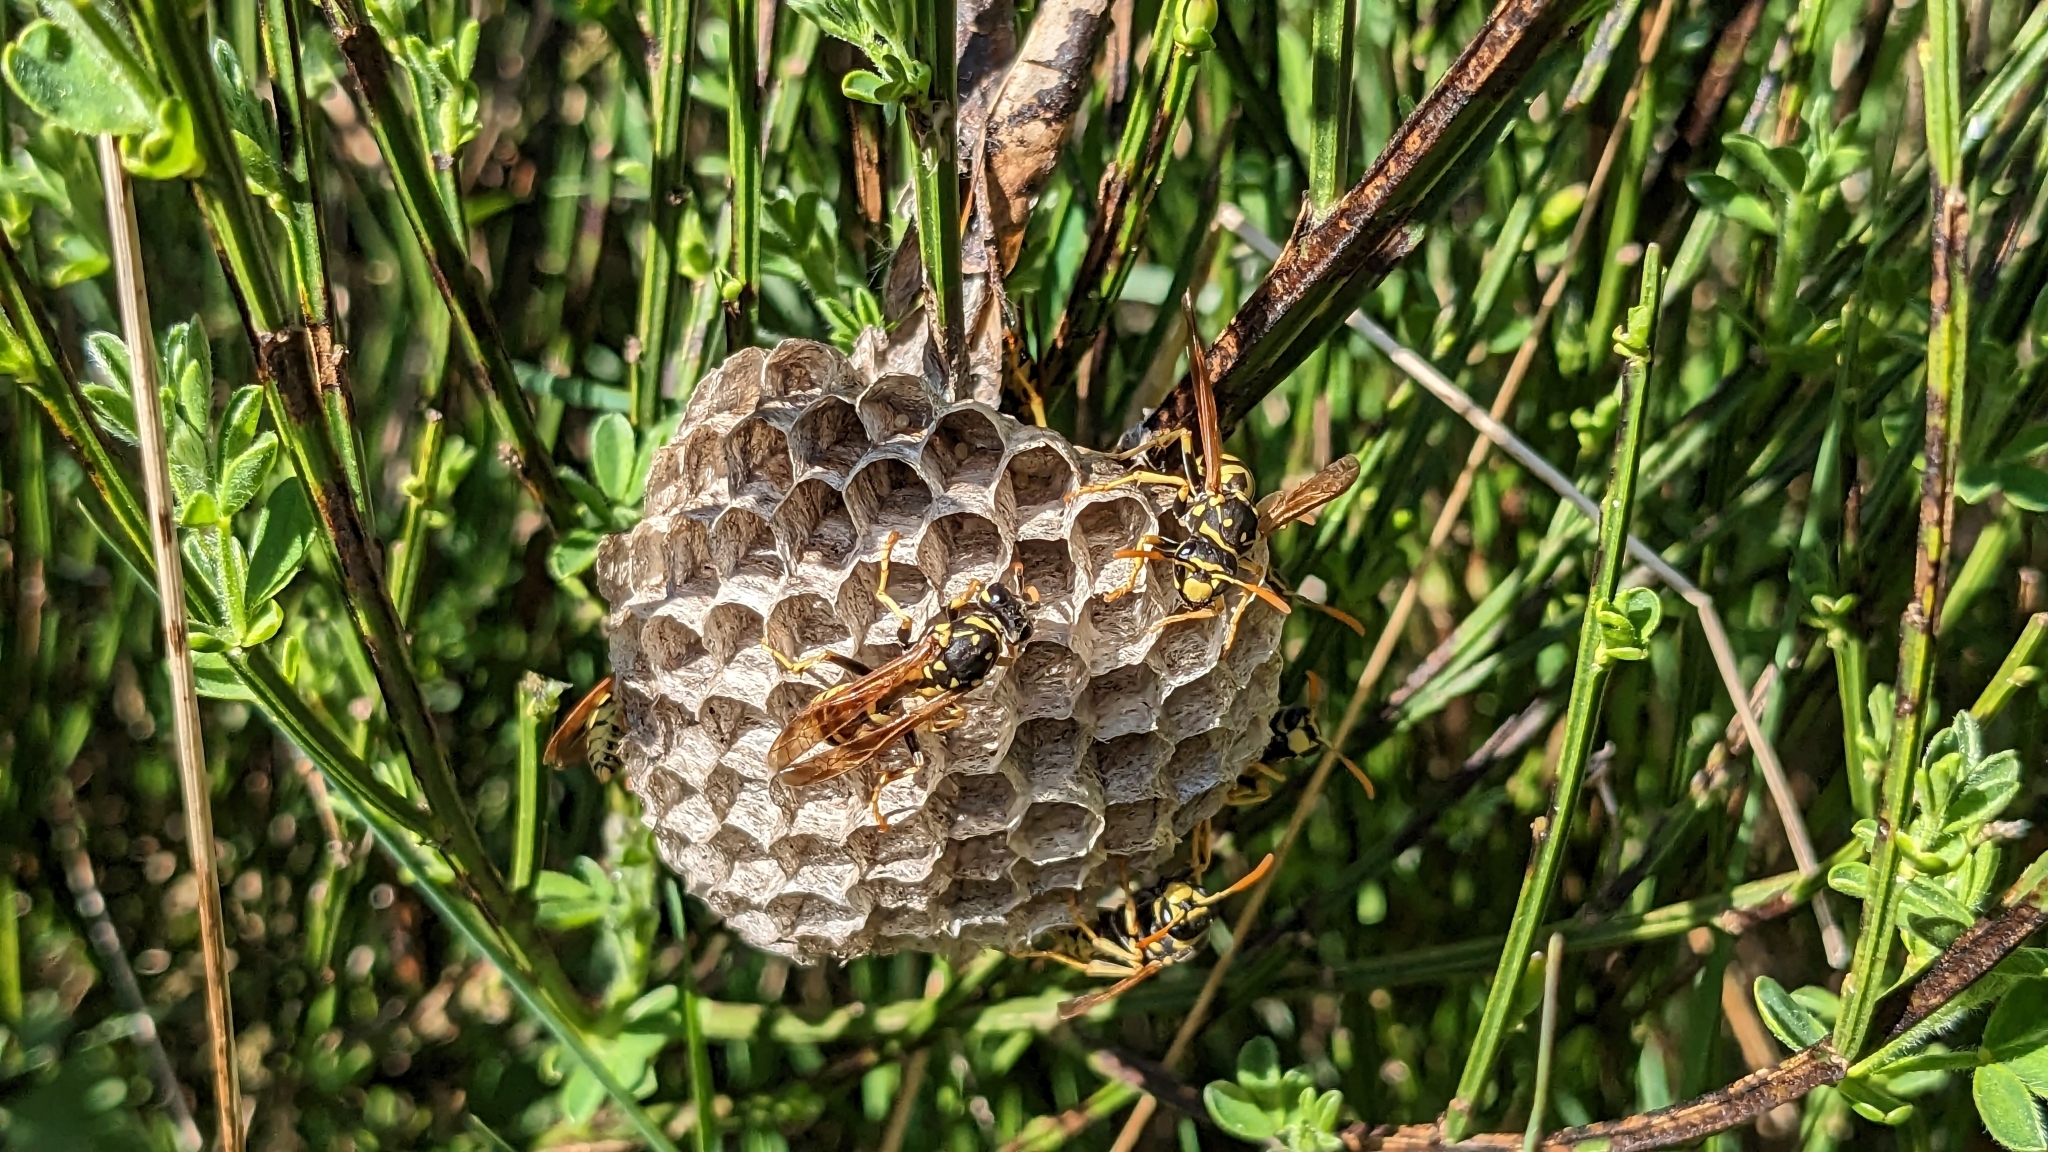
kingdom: Animalia
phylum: Arthropoda
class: Insecta
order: Hymenoptera
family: Eumenidae
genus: Polistes
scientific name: Polistes dominula
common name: Paper wasp
